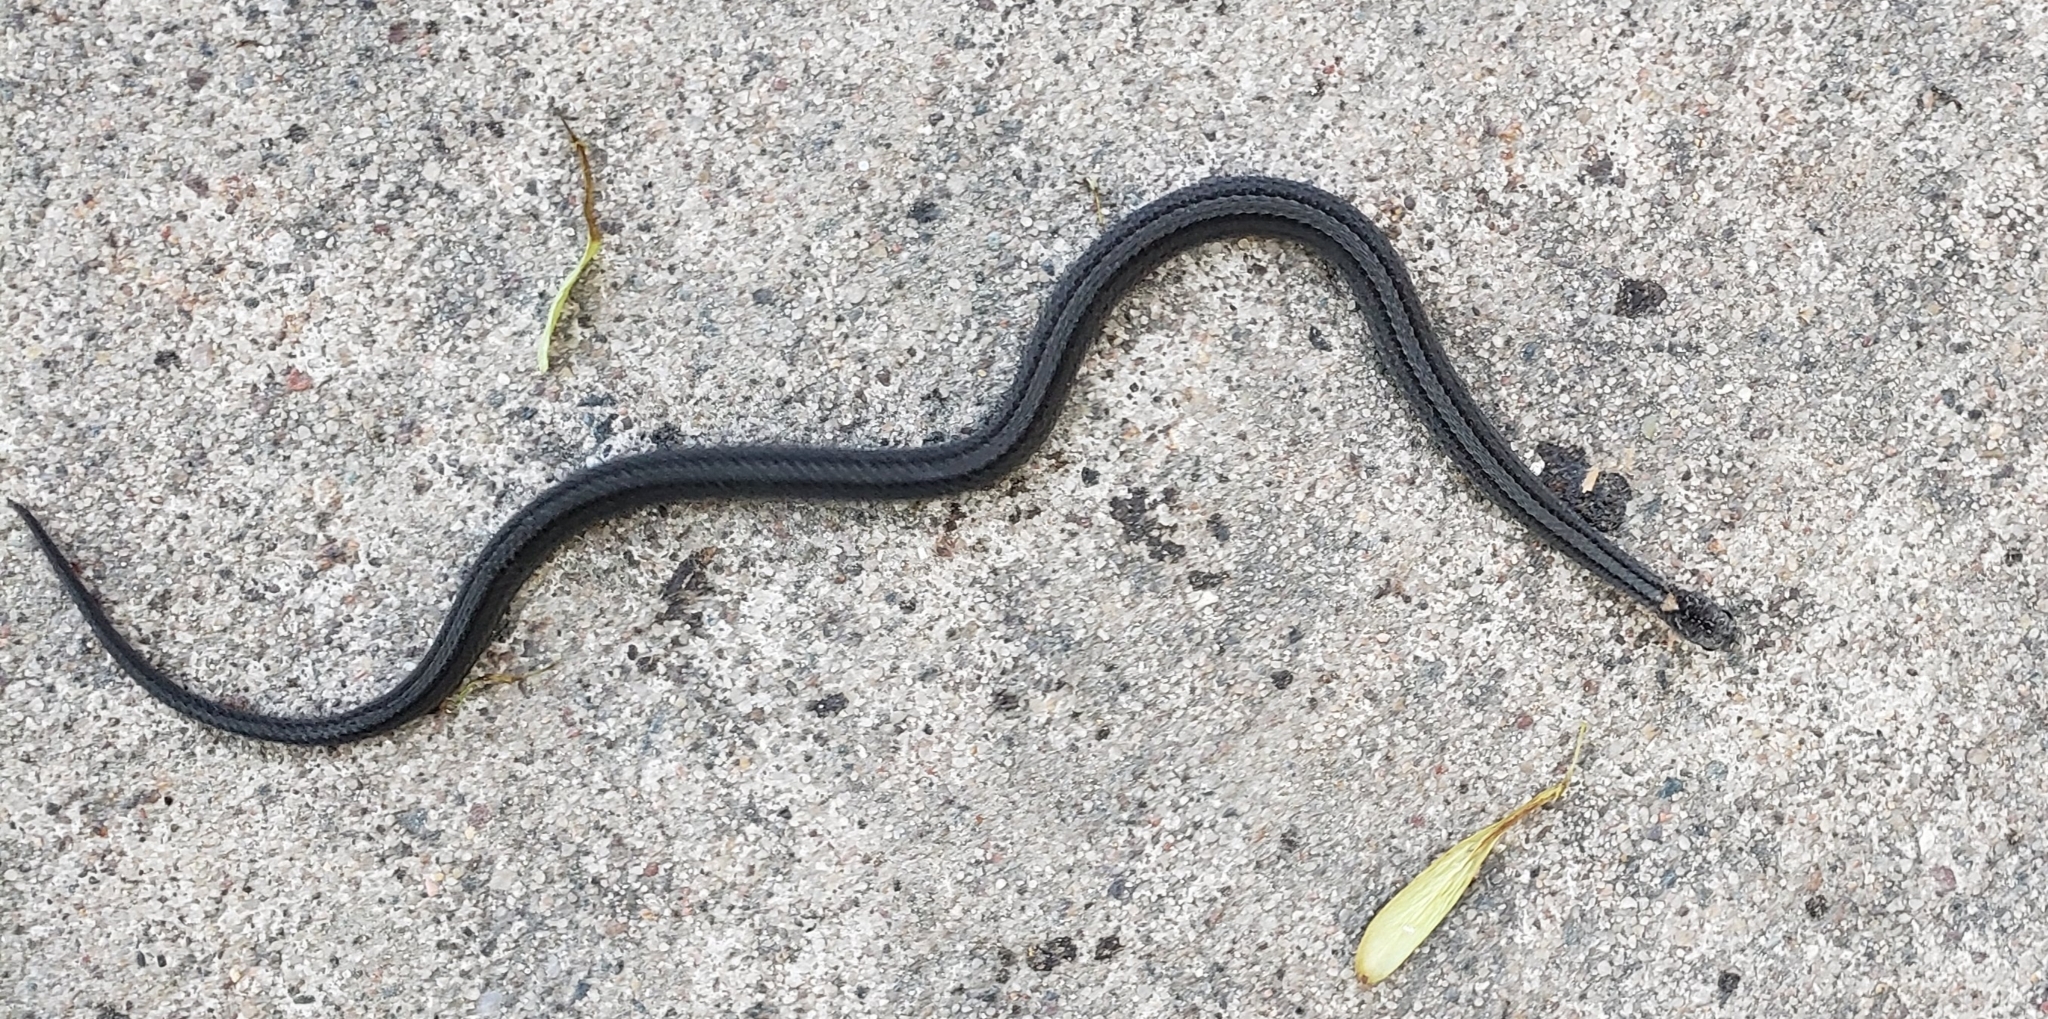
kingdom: Animalia
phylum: Chordata
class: Squamata
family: Colubridae
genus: Storeria
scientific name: Storeria occipitomaculata
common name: Redbelly snake
